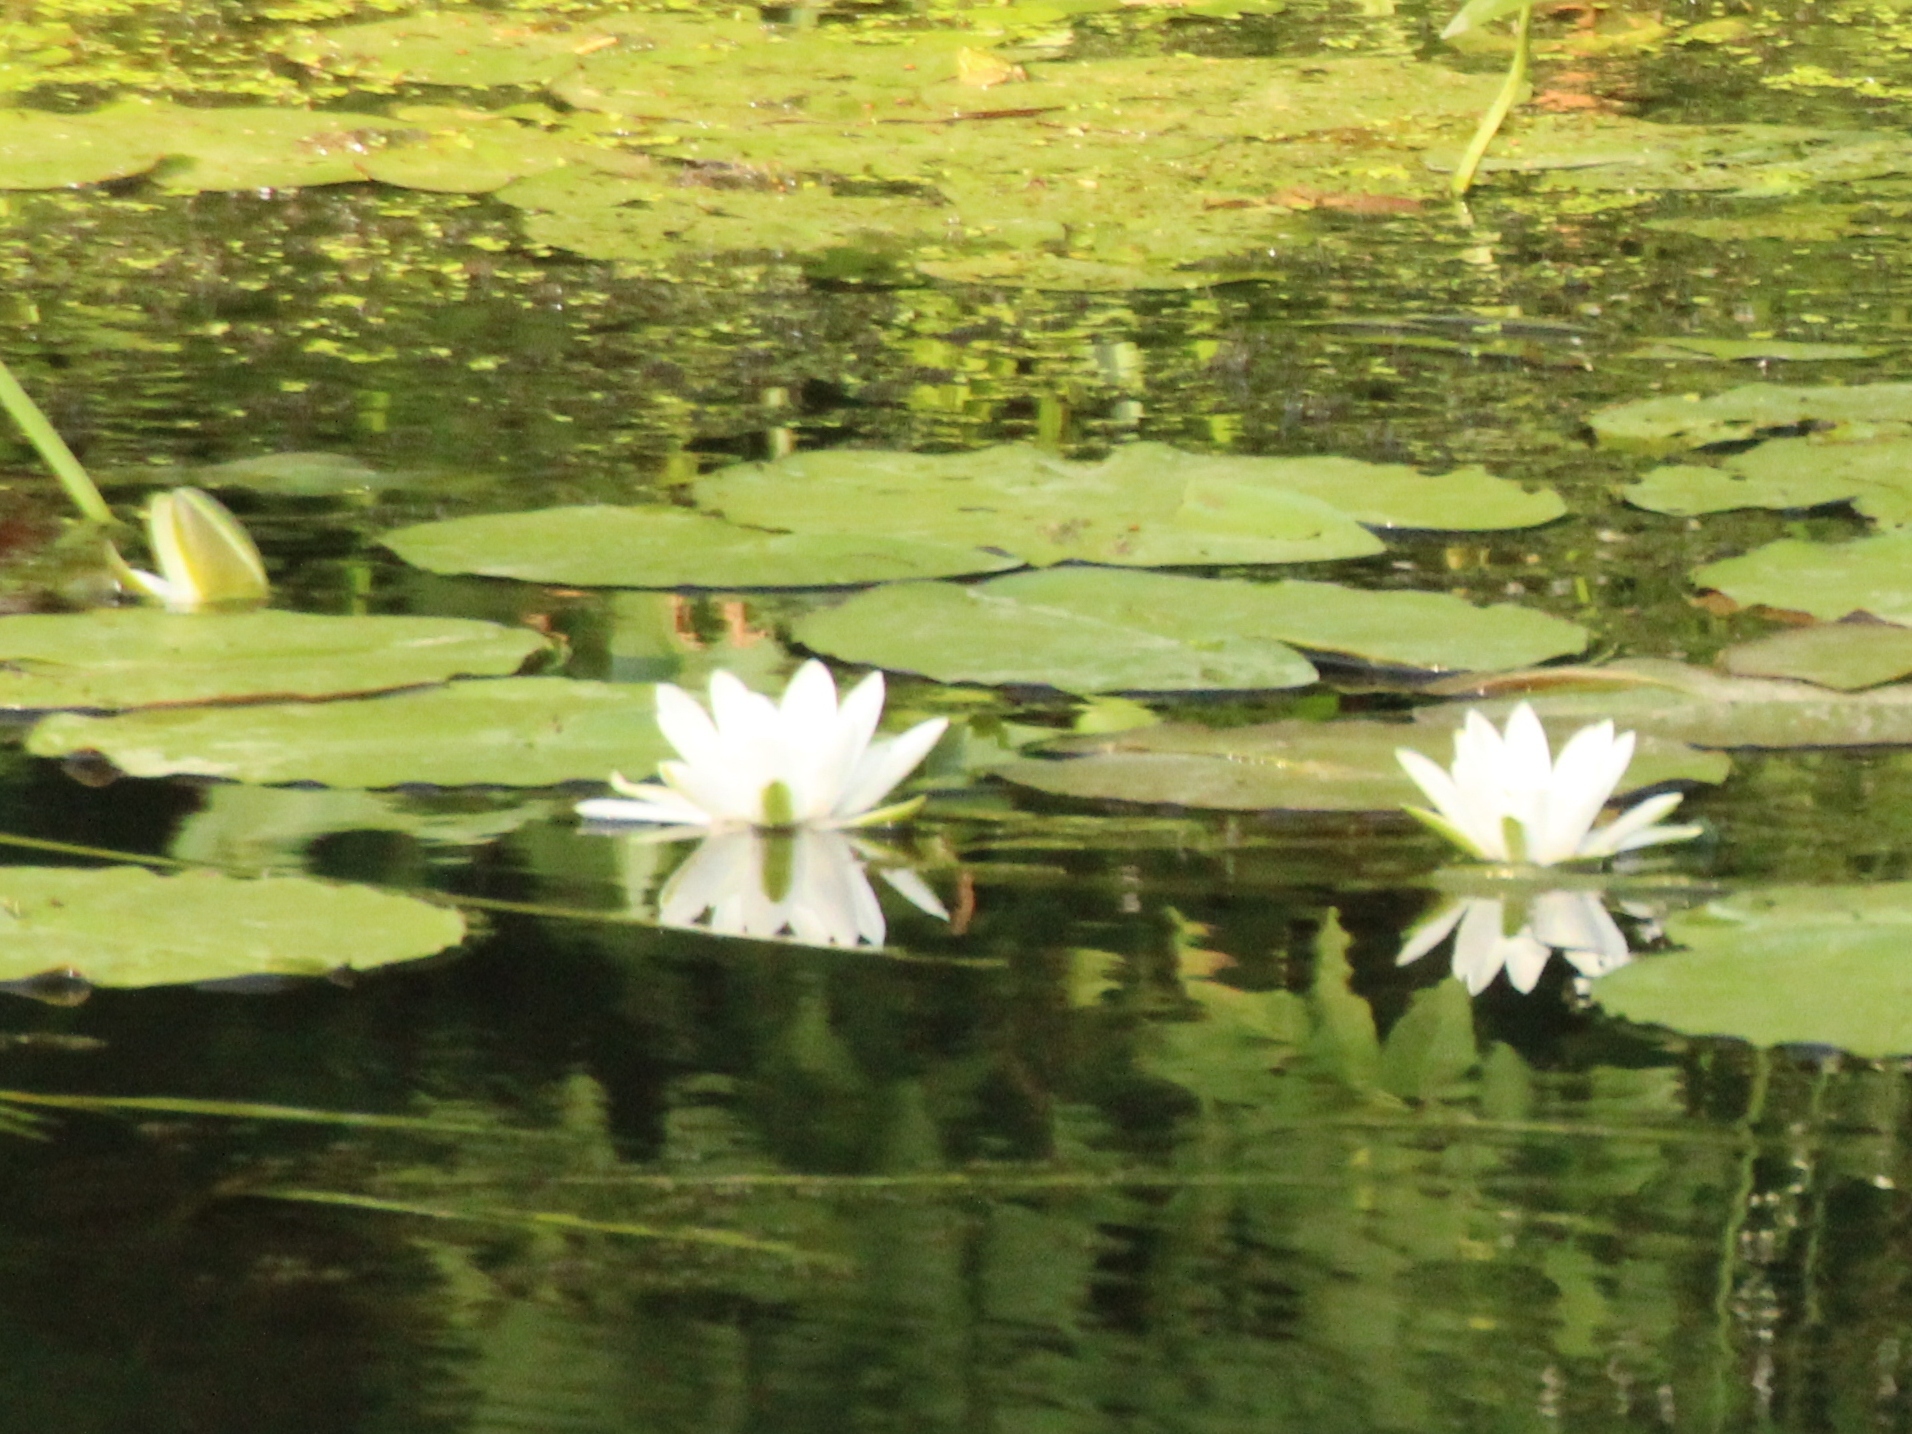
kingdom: Plantae
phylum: Tracheophyta
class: Magnoliopsida
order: Nymphaeales
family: Nymphaeaceae
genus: Nymphaea
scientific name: Nymphaea candida
